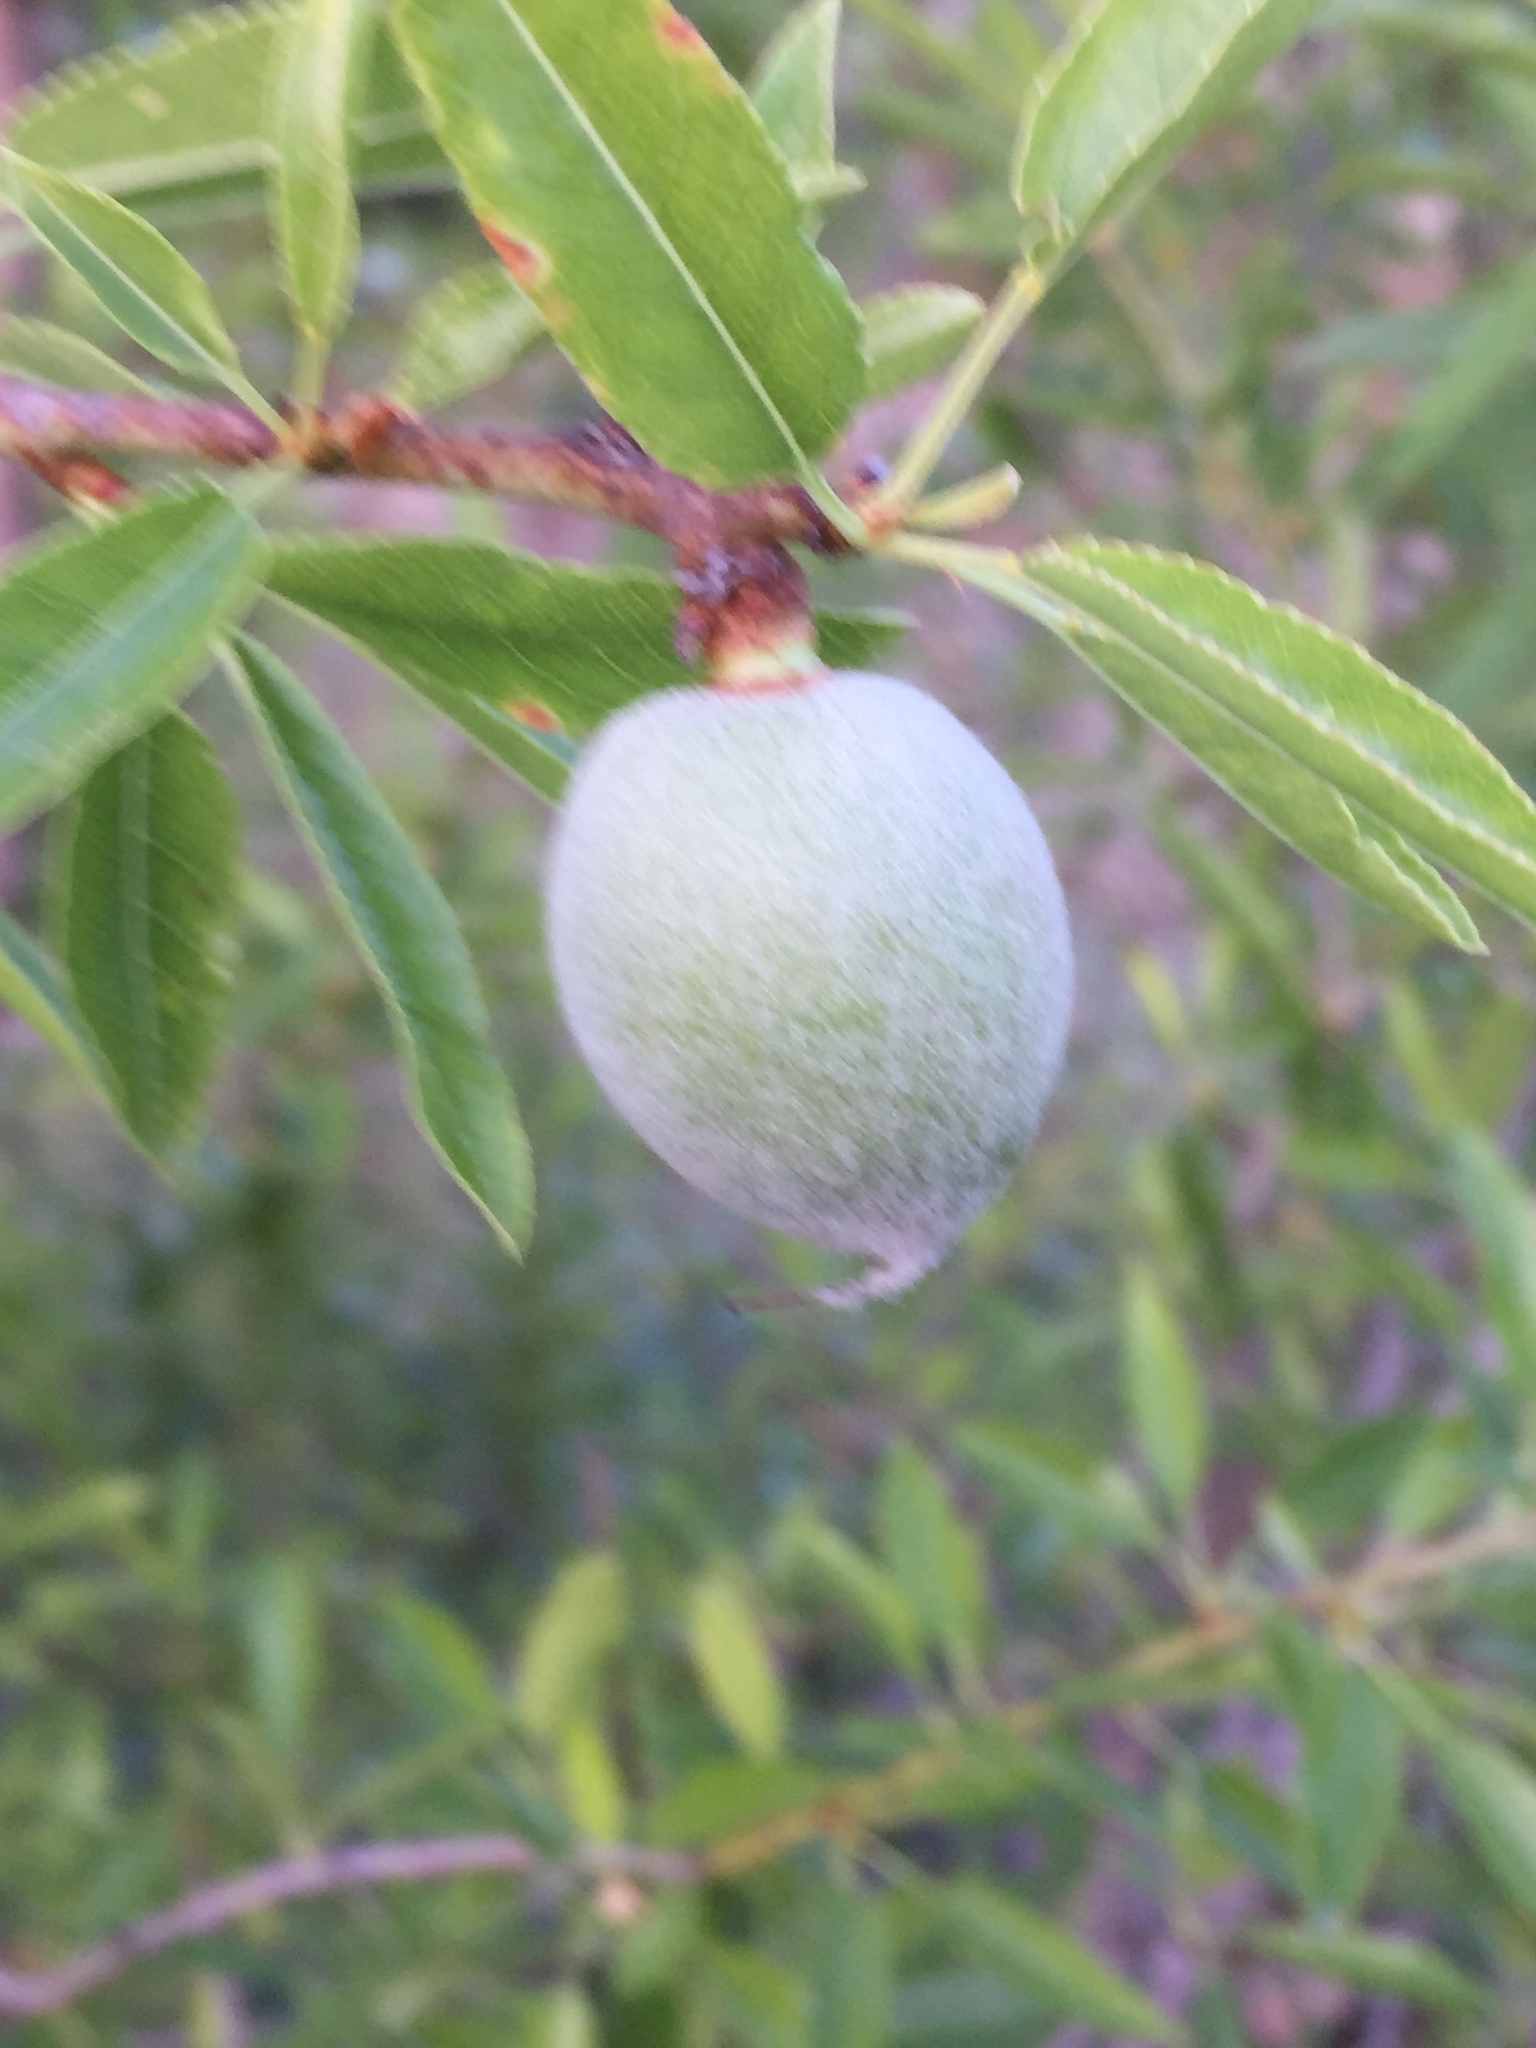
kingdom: Plantae
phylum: Tracheophyta
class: Magnoliopsida
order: Rosales
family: Rosaceae
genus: Prunus
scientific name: Prunus amygdalus
